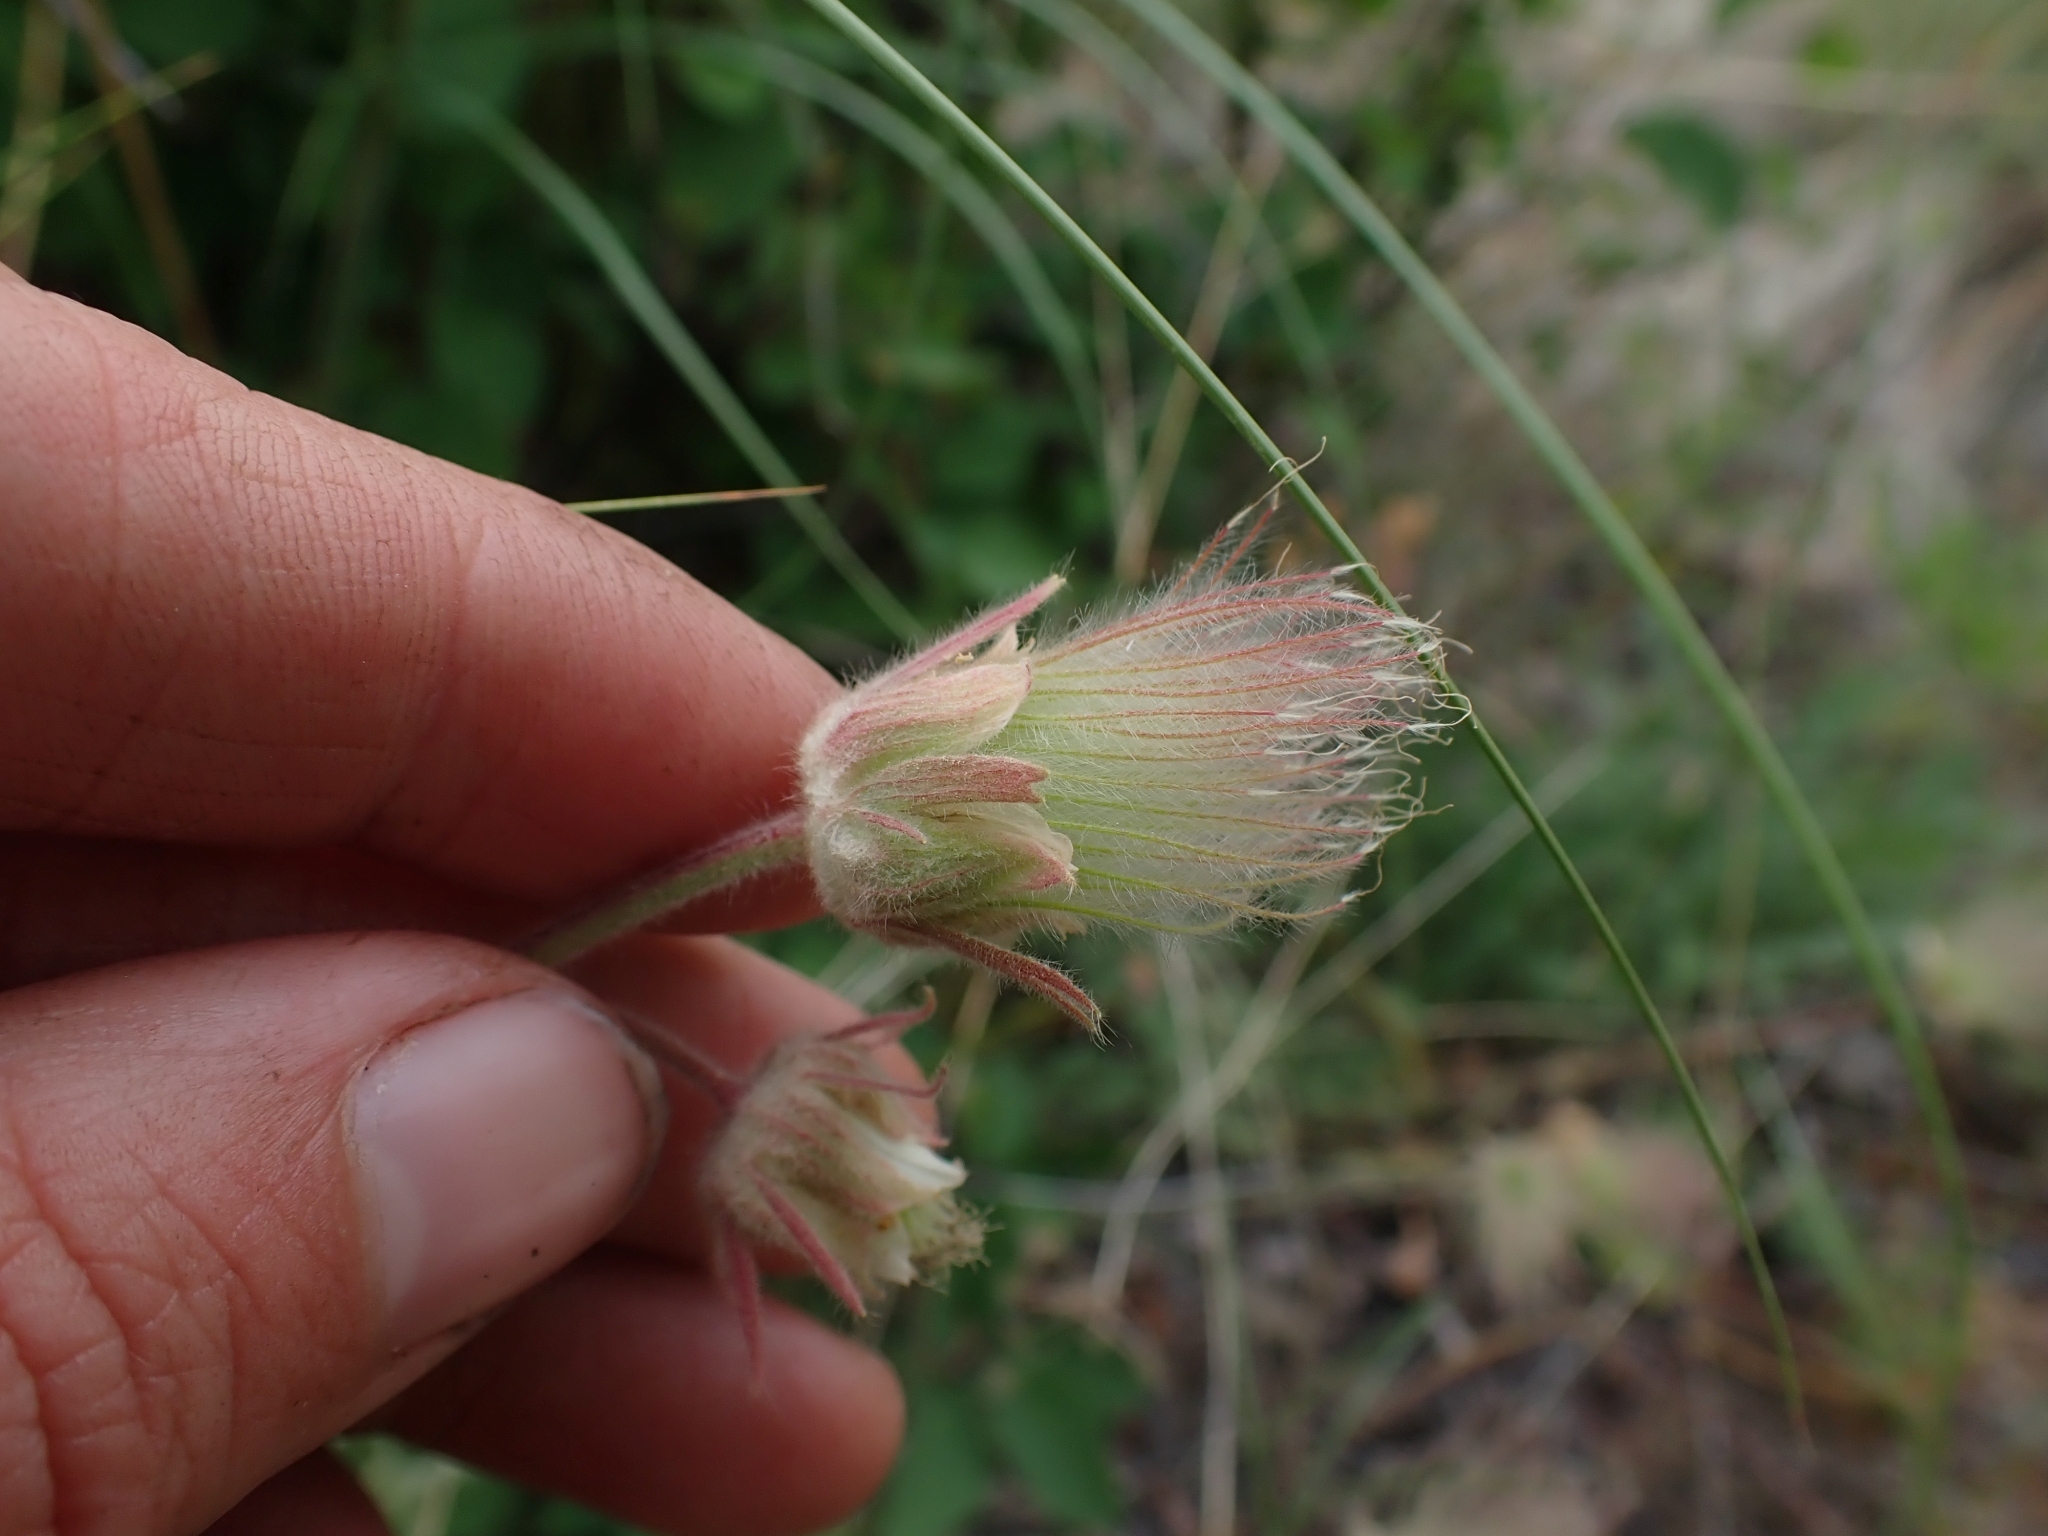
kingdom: Plantae
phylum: Tracheophyta
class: Magnoliopsida
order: Rosales
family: Rosaceae
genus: Geum
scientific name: Geum triflorum
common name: Old man's whiskers
